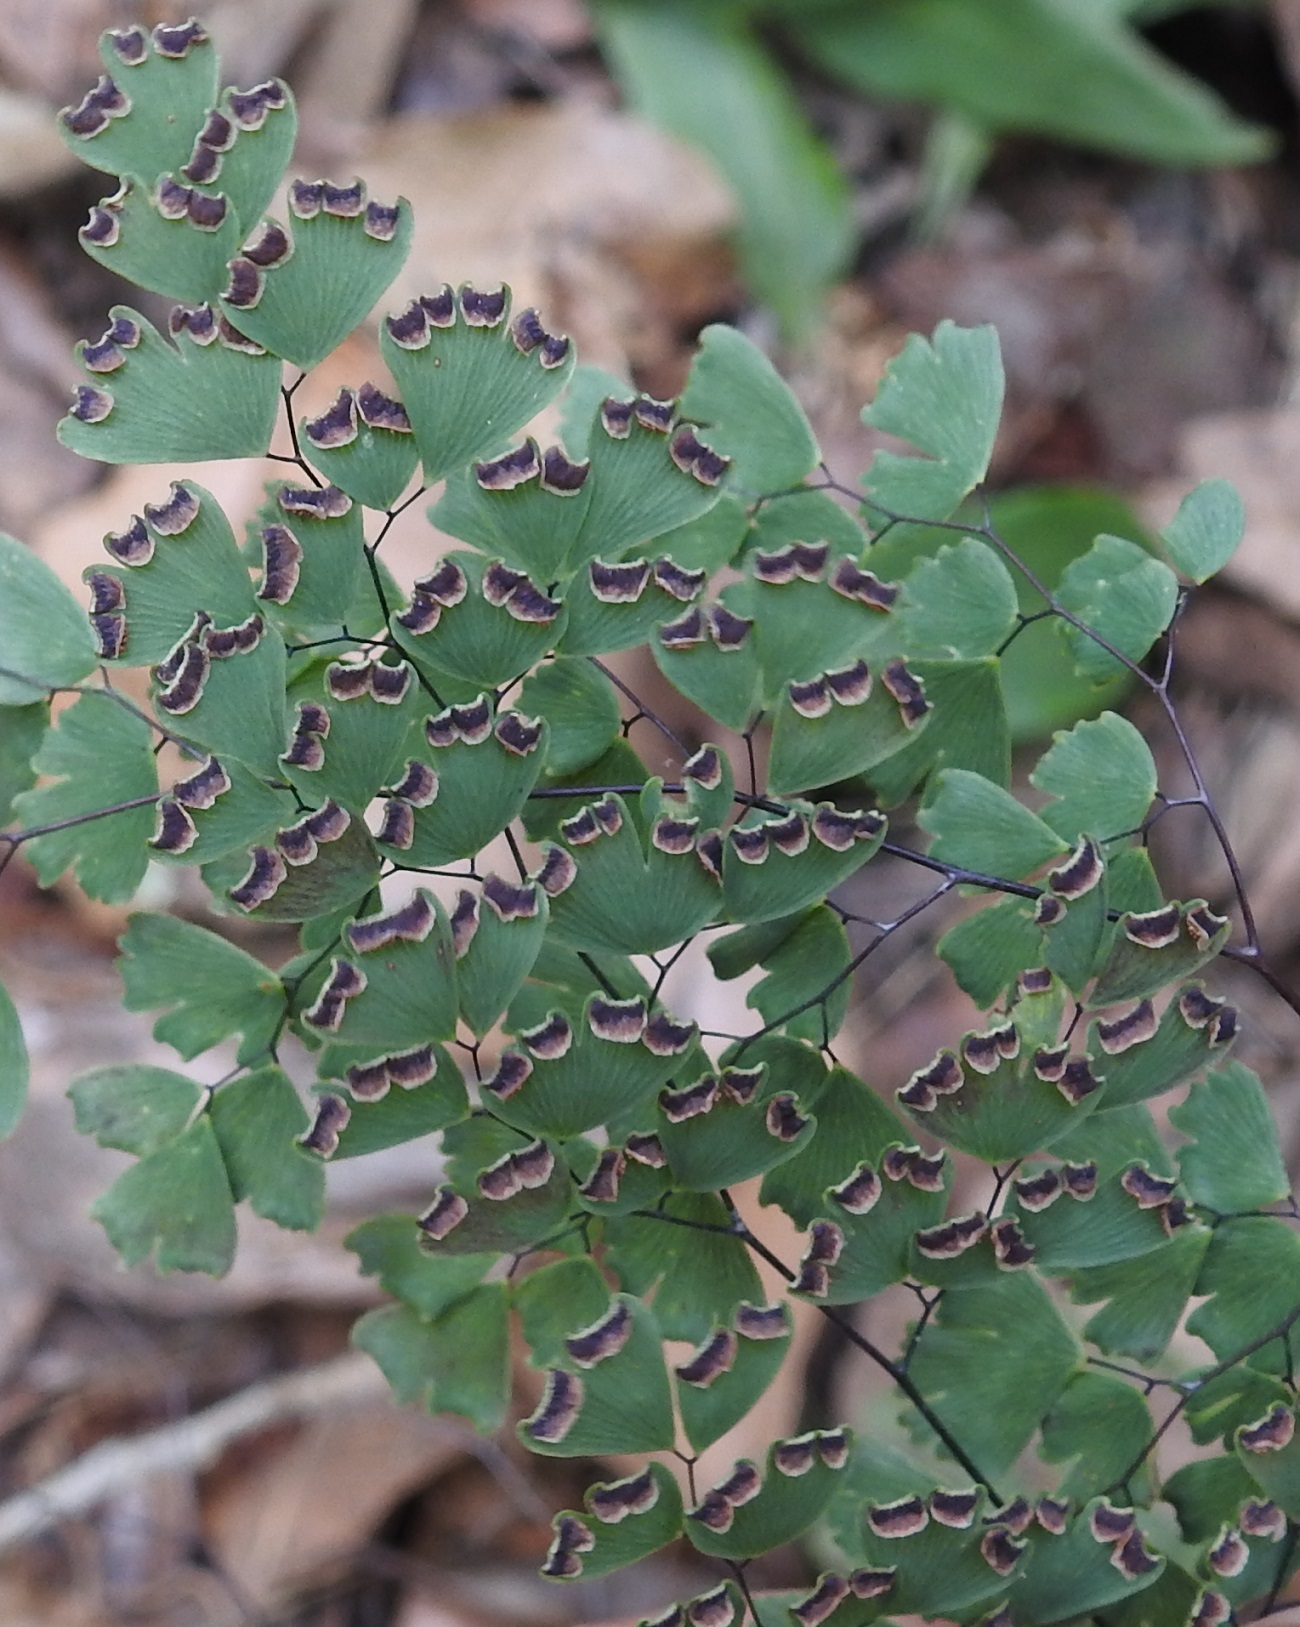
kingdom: Plantae
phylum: Tracheophyta
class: Polypodiopsida
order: Polypodiales
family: Pteridaceae
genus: Adiantum
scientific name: Adiantum andicola
